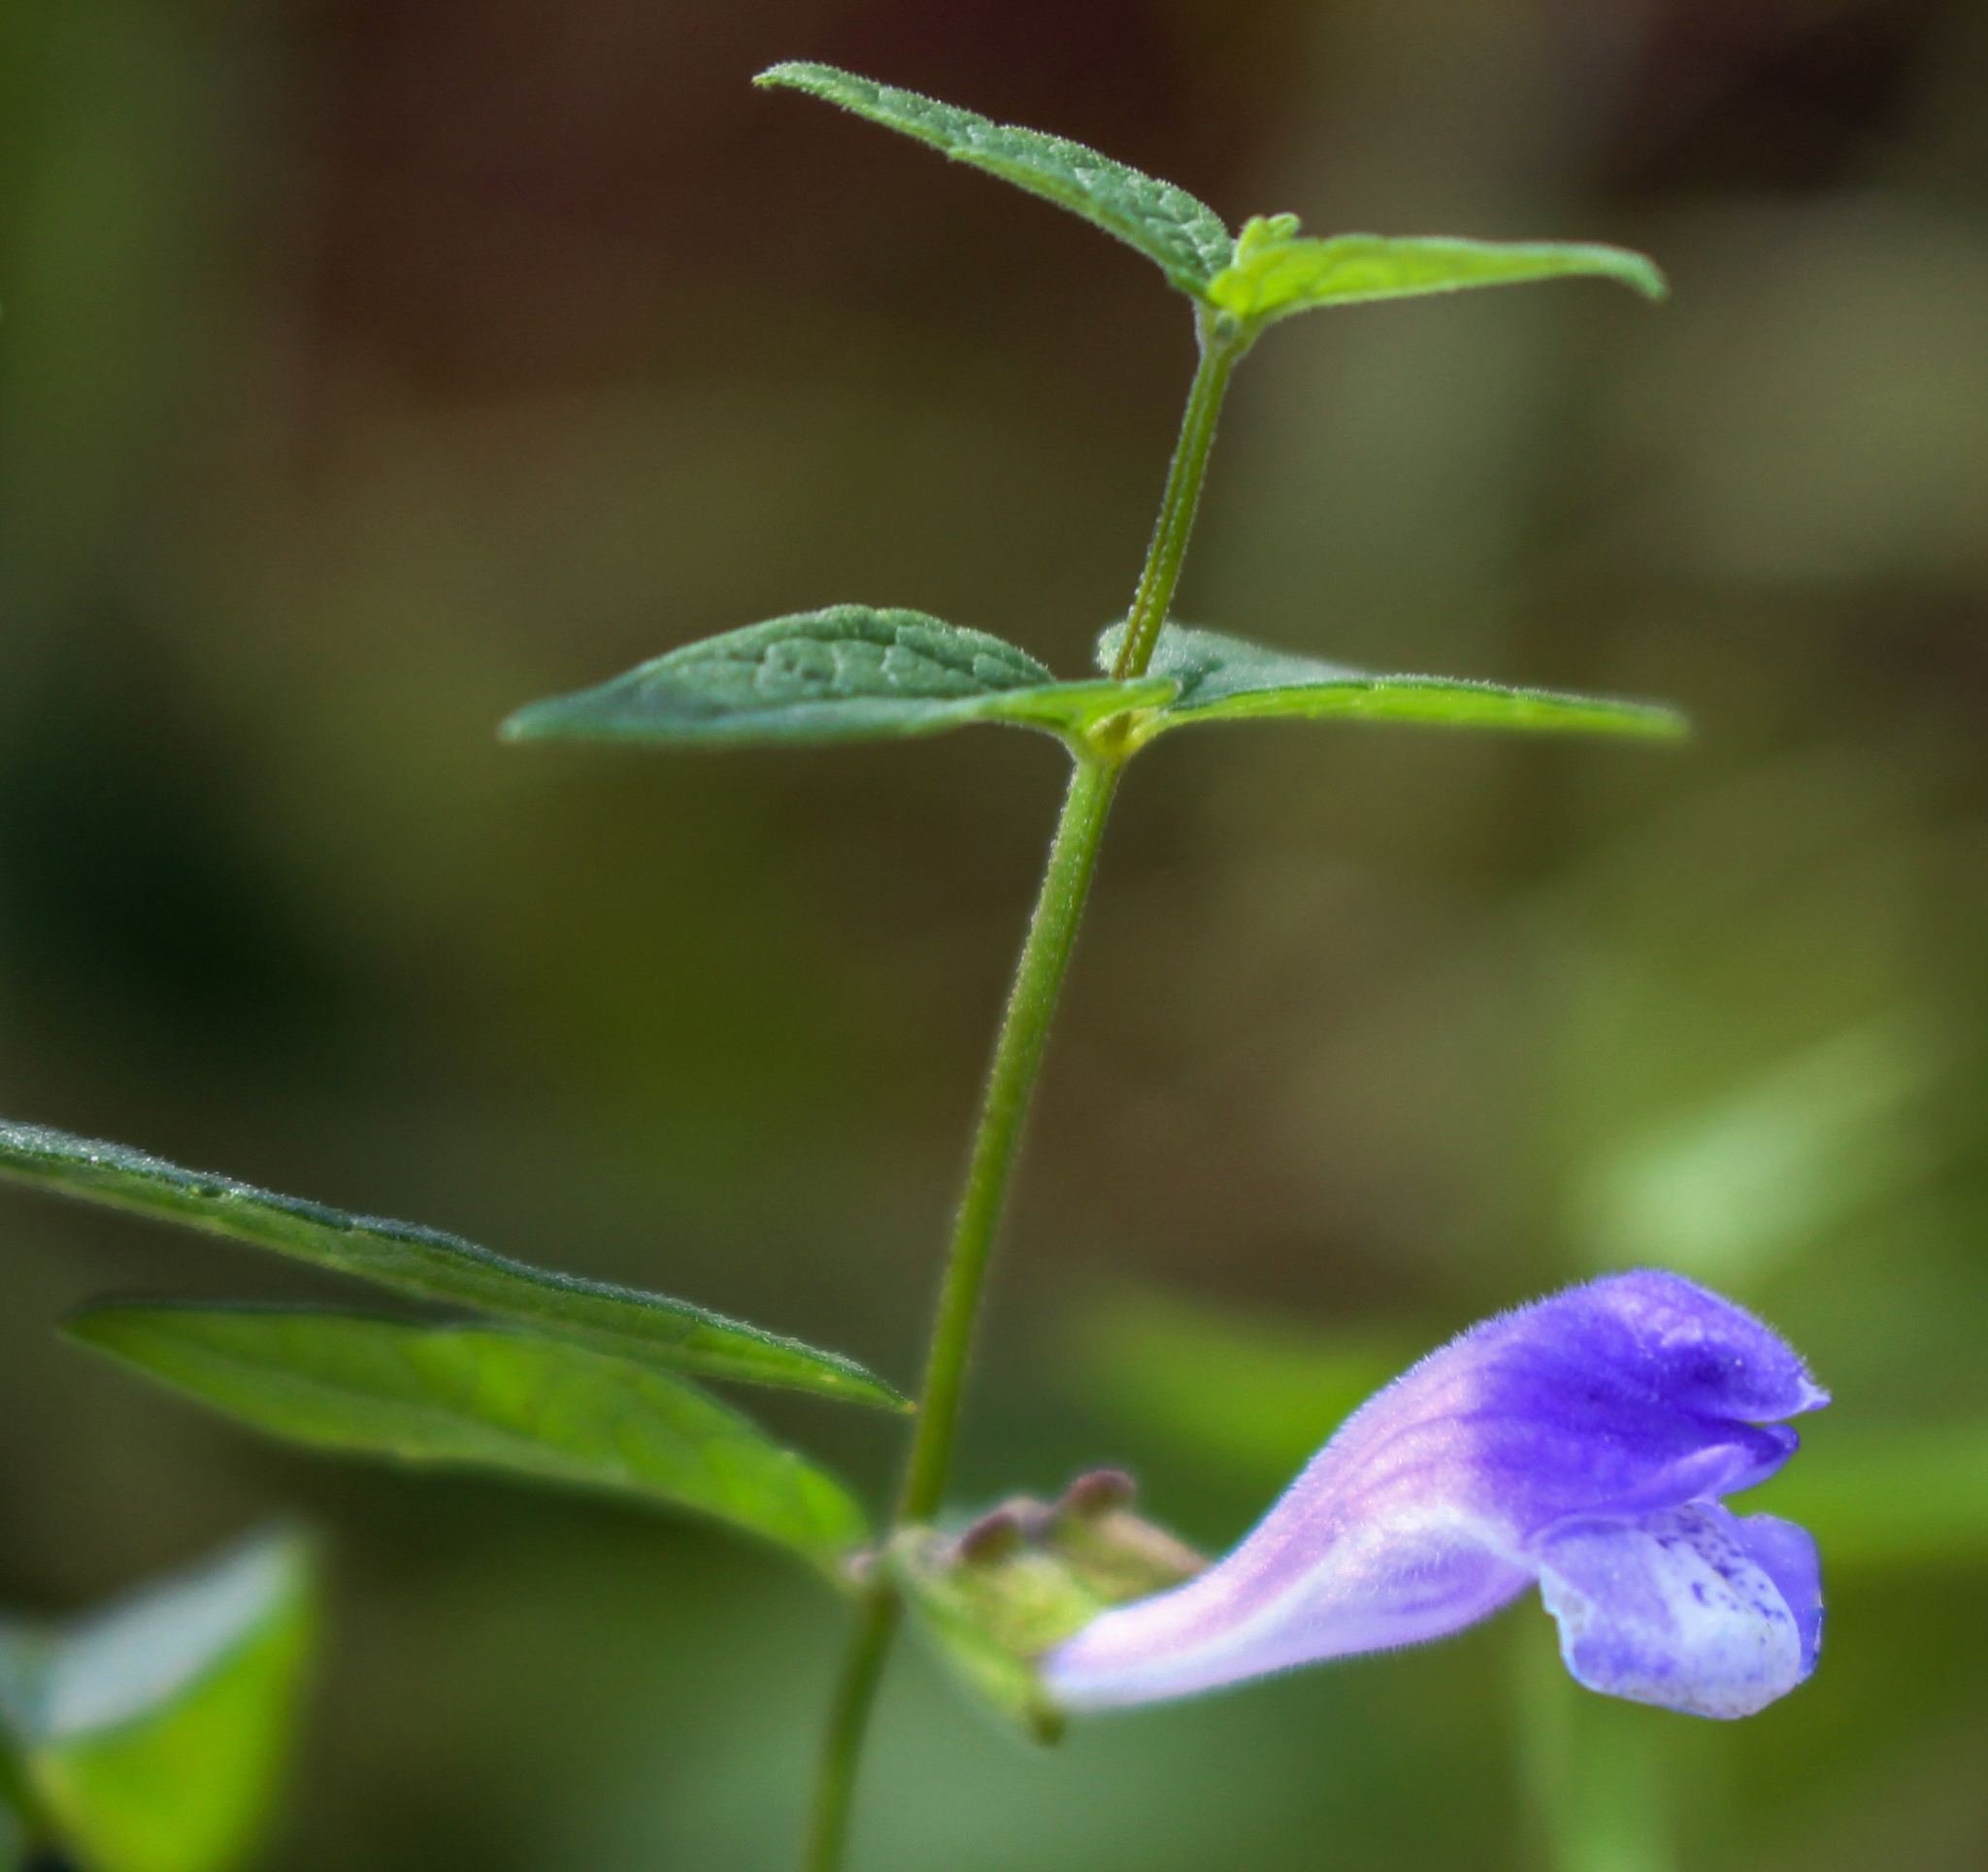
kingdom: Plantae
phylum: Tracheophyta
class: Magnoliopsida
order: Lamiales
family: Lamiaceae
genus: Scutellaria
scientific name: Scutellaria galericulata
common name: Skullcap
